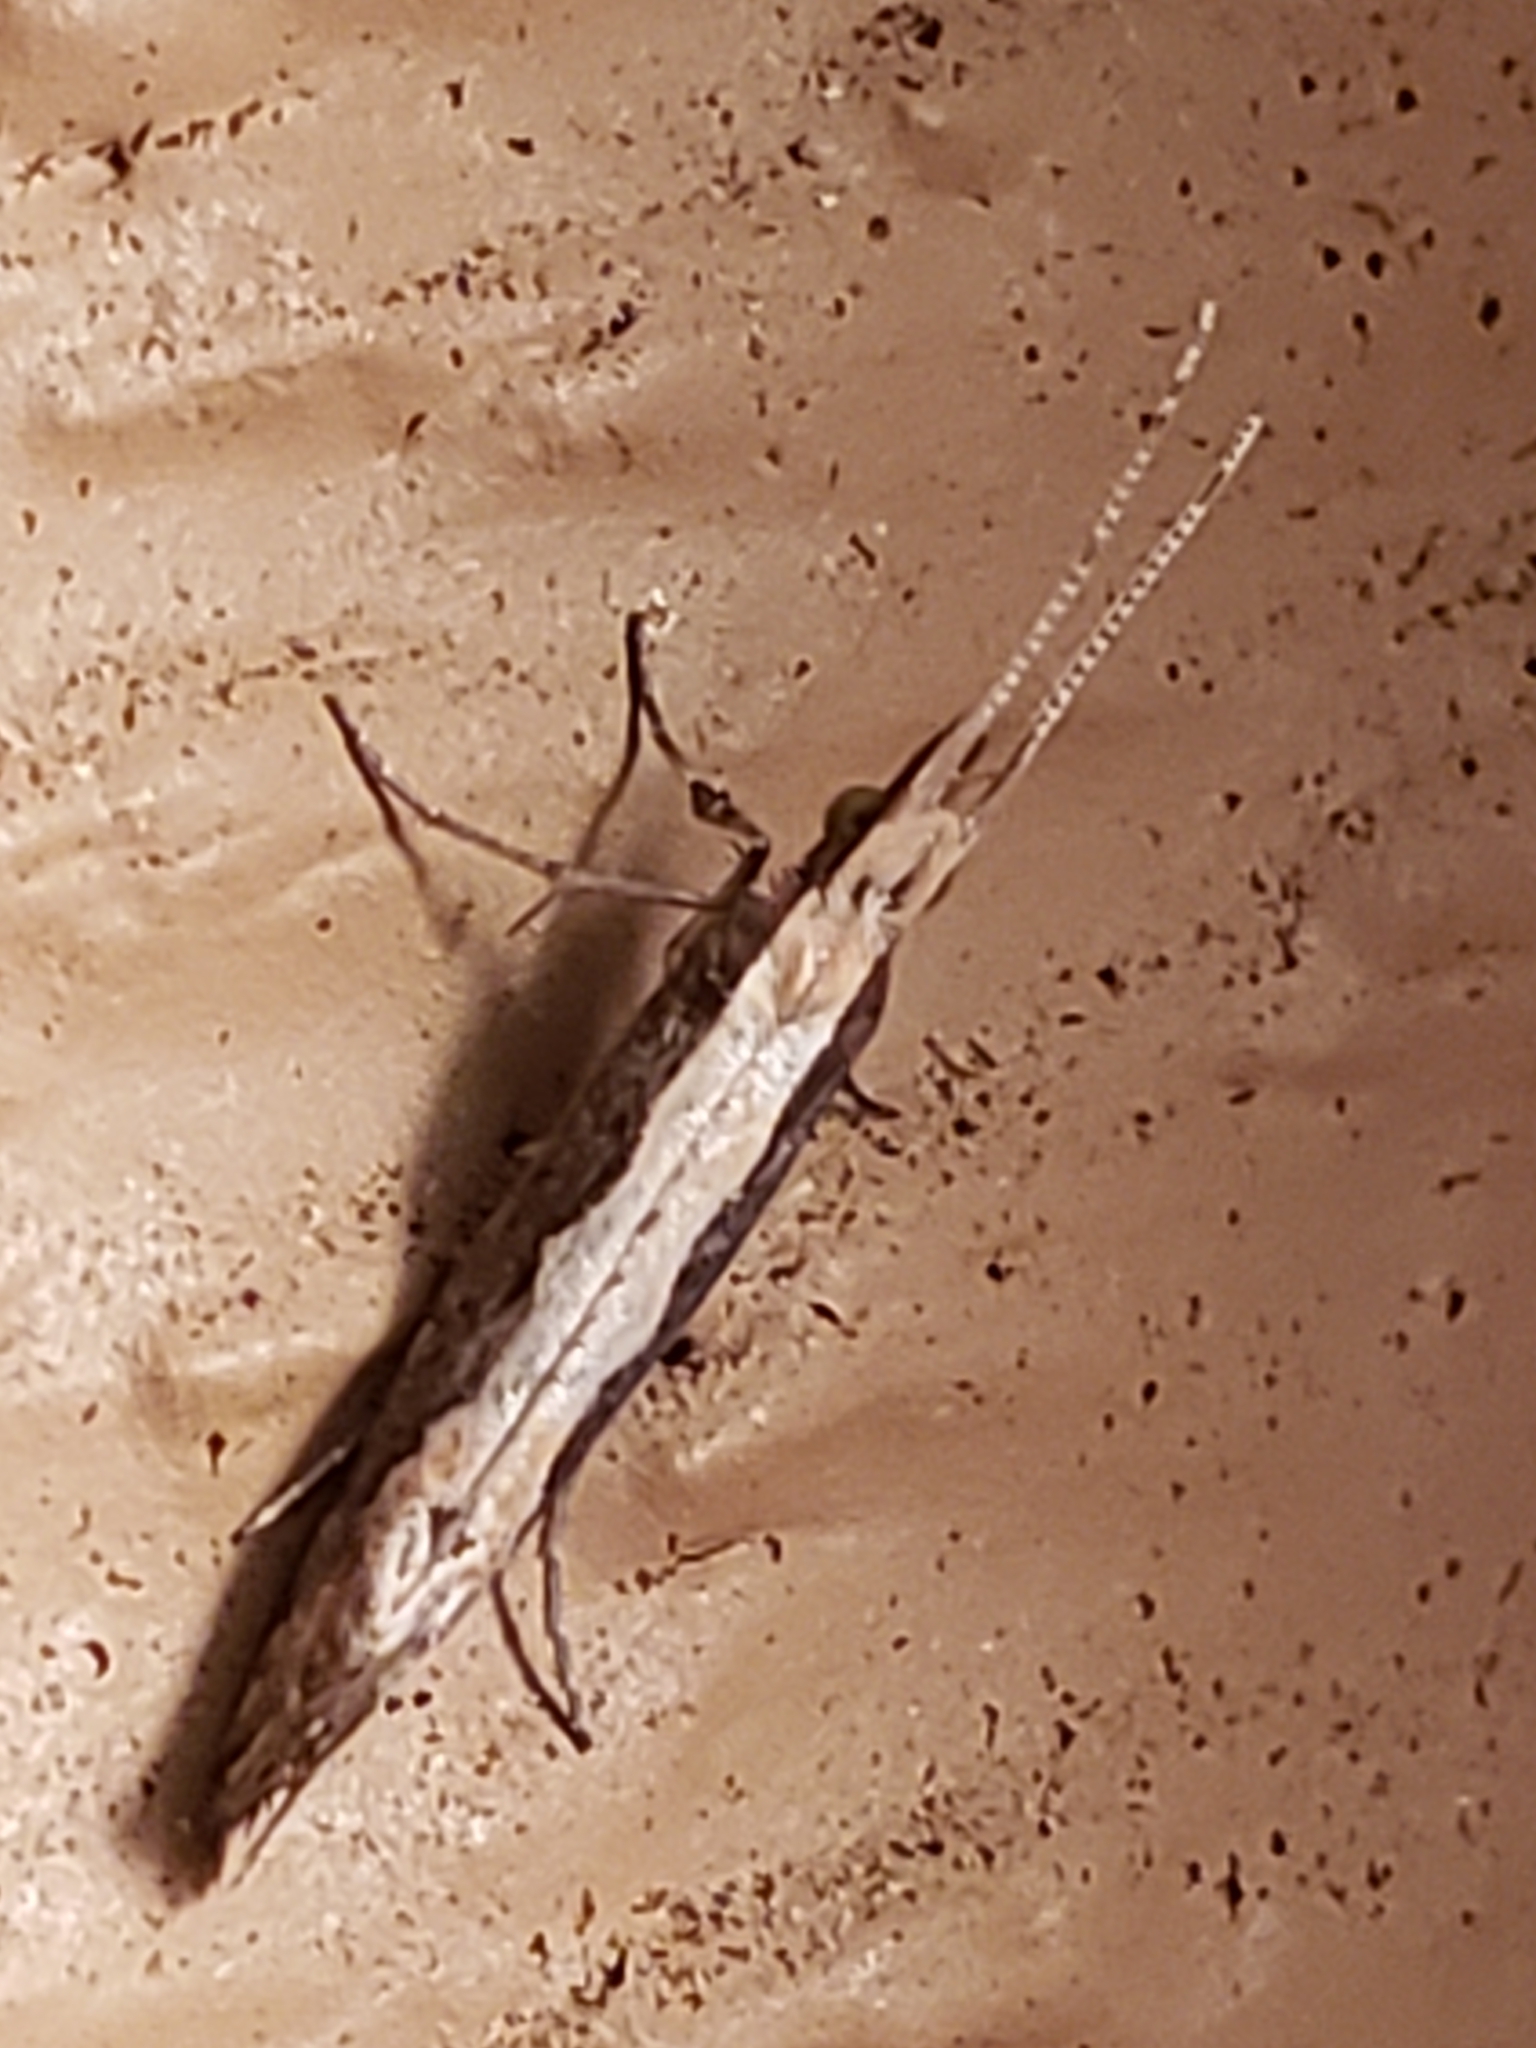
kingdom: Animalia
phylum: Arthropoda
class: Insecta
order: Lepidoptera
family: Plutellidae
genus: Plutella
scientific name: Plutella xylostella
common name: Diamond-back moth
